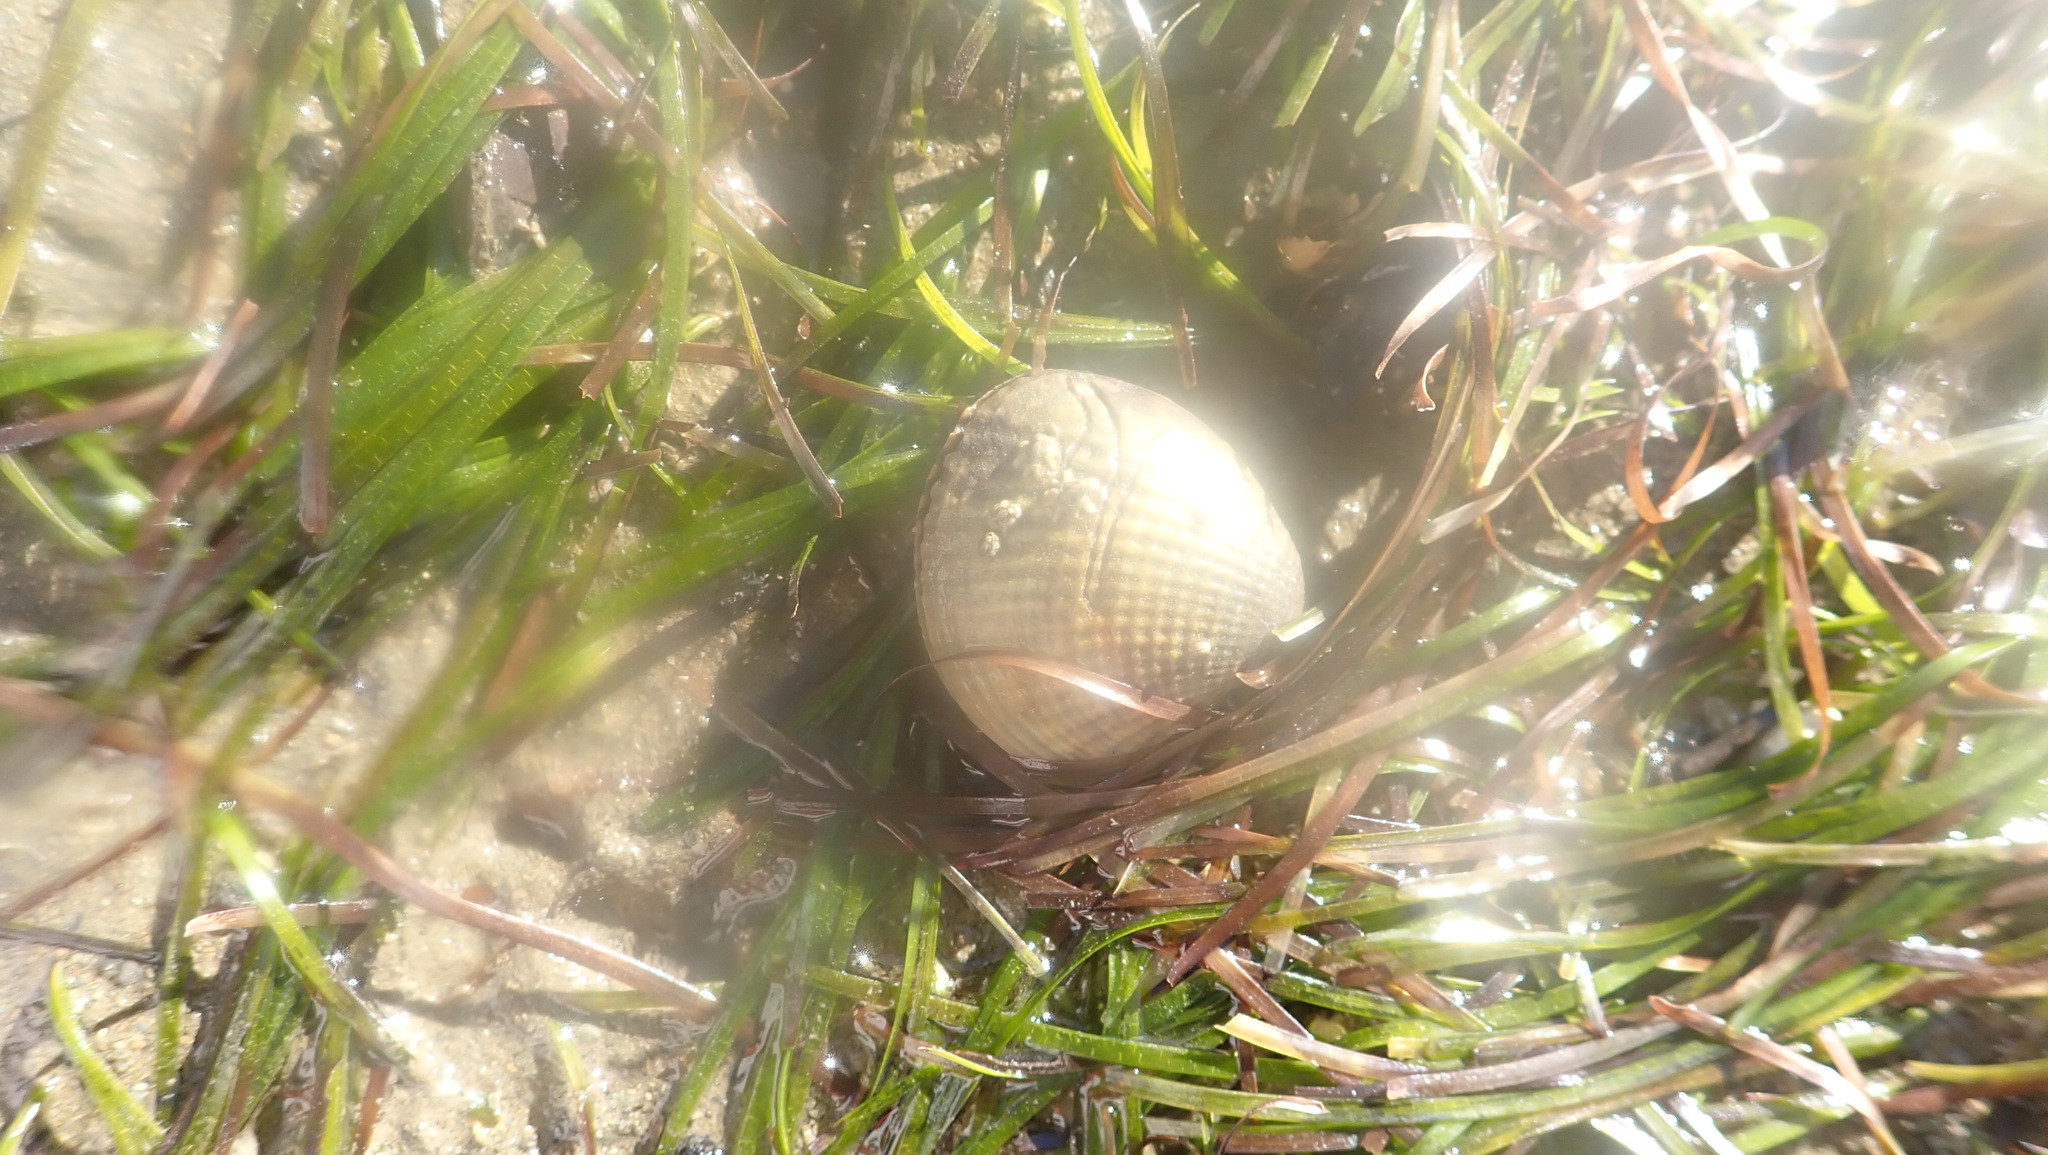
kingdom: Animalia
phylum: Mollusca
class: Bivalvia
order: Venerida
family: Veneridae
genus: Austrovenus
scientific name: Austrovenus stutchburyi
